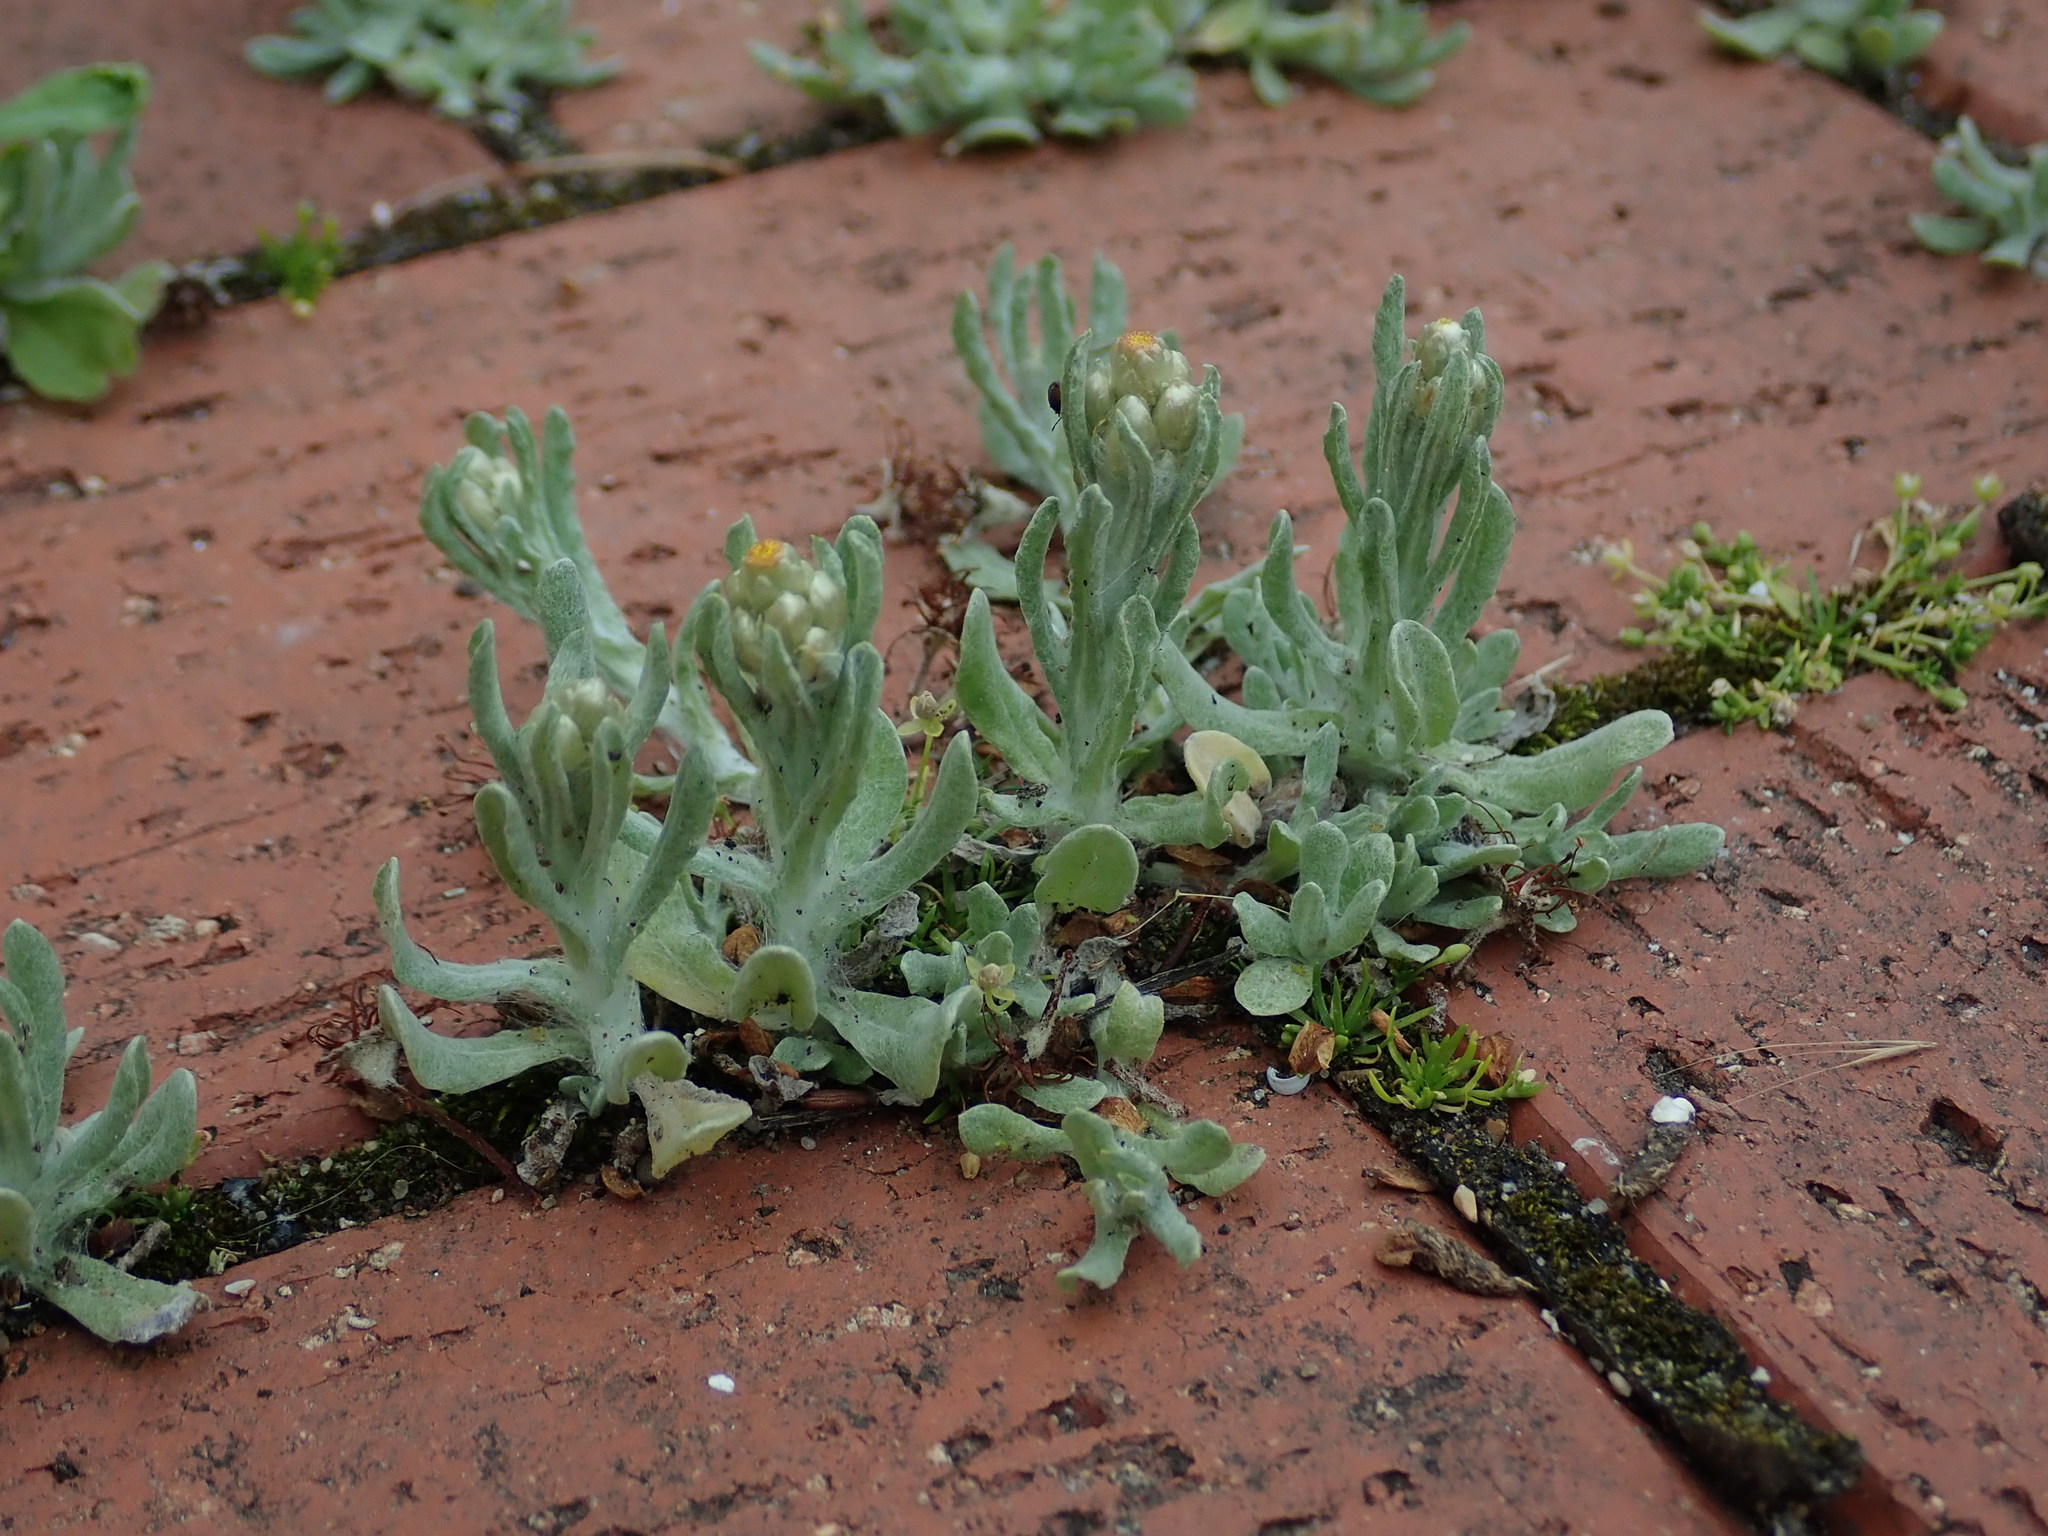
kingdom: Plantae
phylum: Tracheophyta
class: Magnoliopsida
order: Asterales
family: Asteraceae
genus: Helichrysum
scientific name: Helichrysum luteoalbum
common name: Daisy
